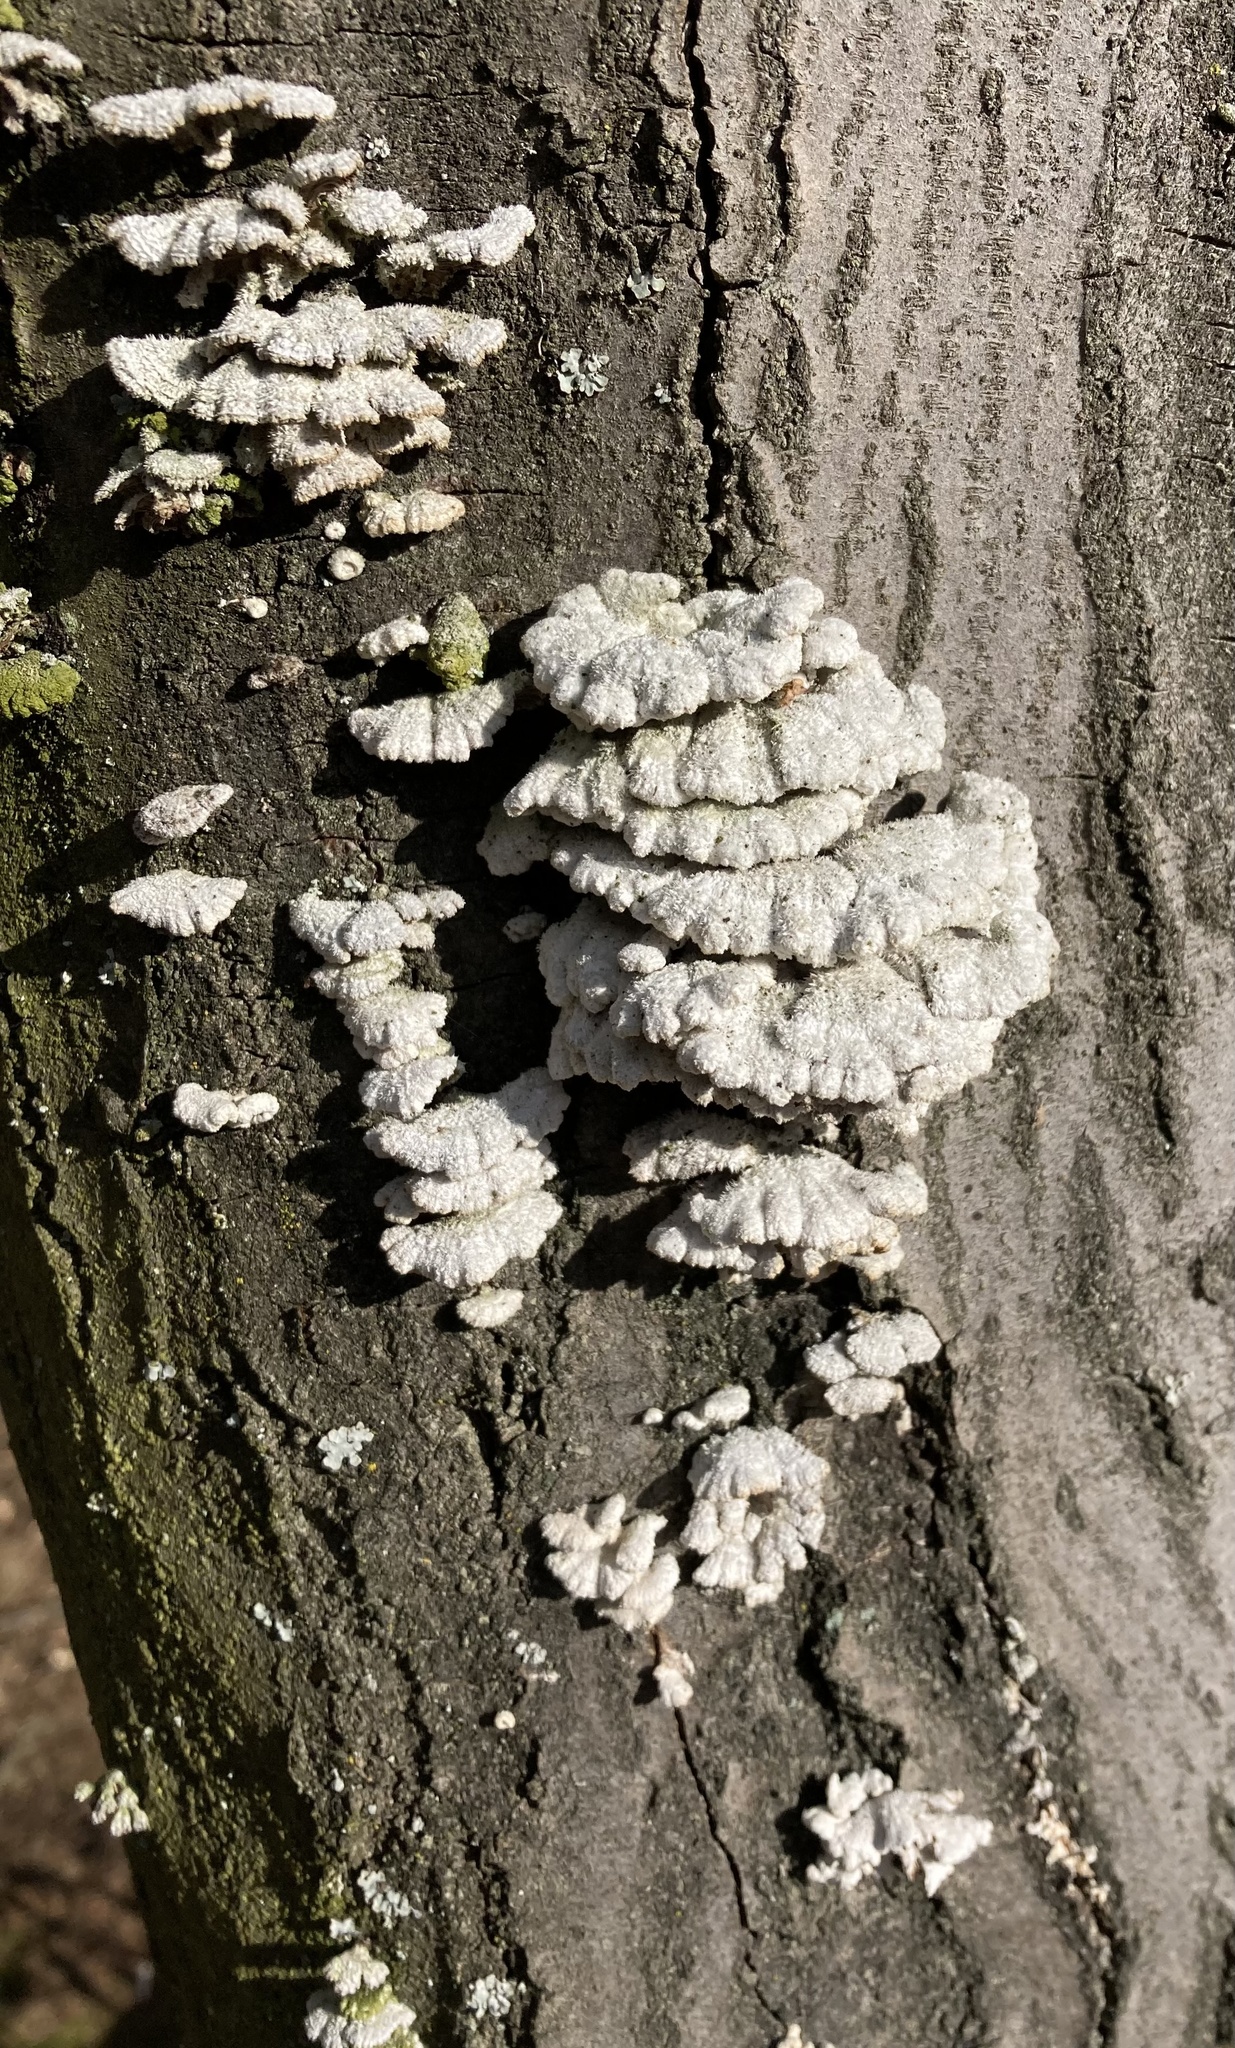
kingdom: Fungi
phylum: Basidiomycota
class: Agaricomycetes
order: Agaricales
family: Schizophyllaceae
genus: Schizophyllum
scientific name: Schizophyllum commune
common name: Common porecrust
